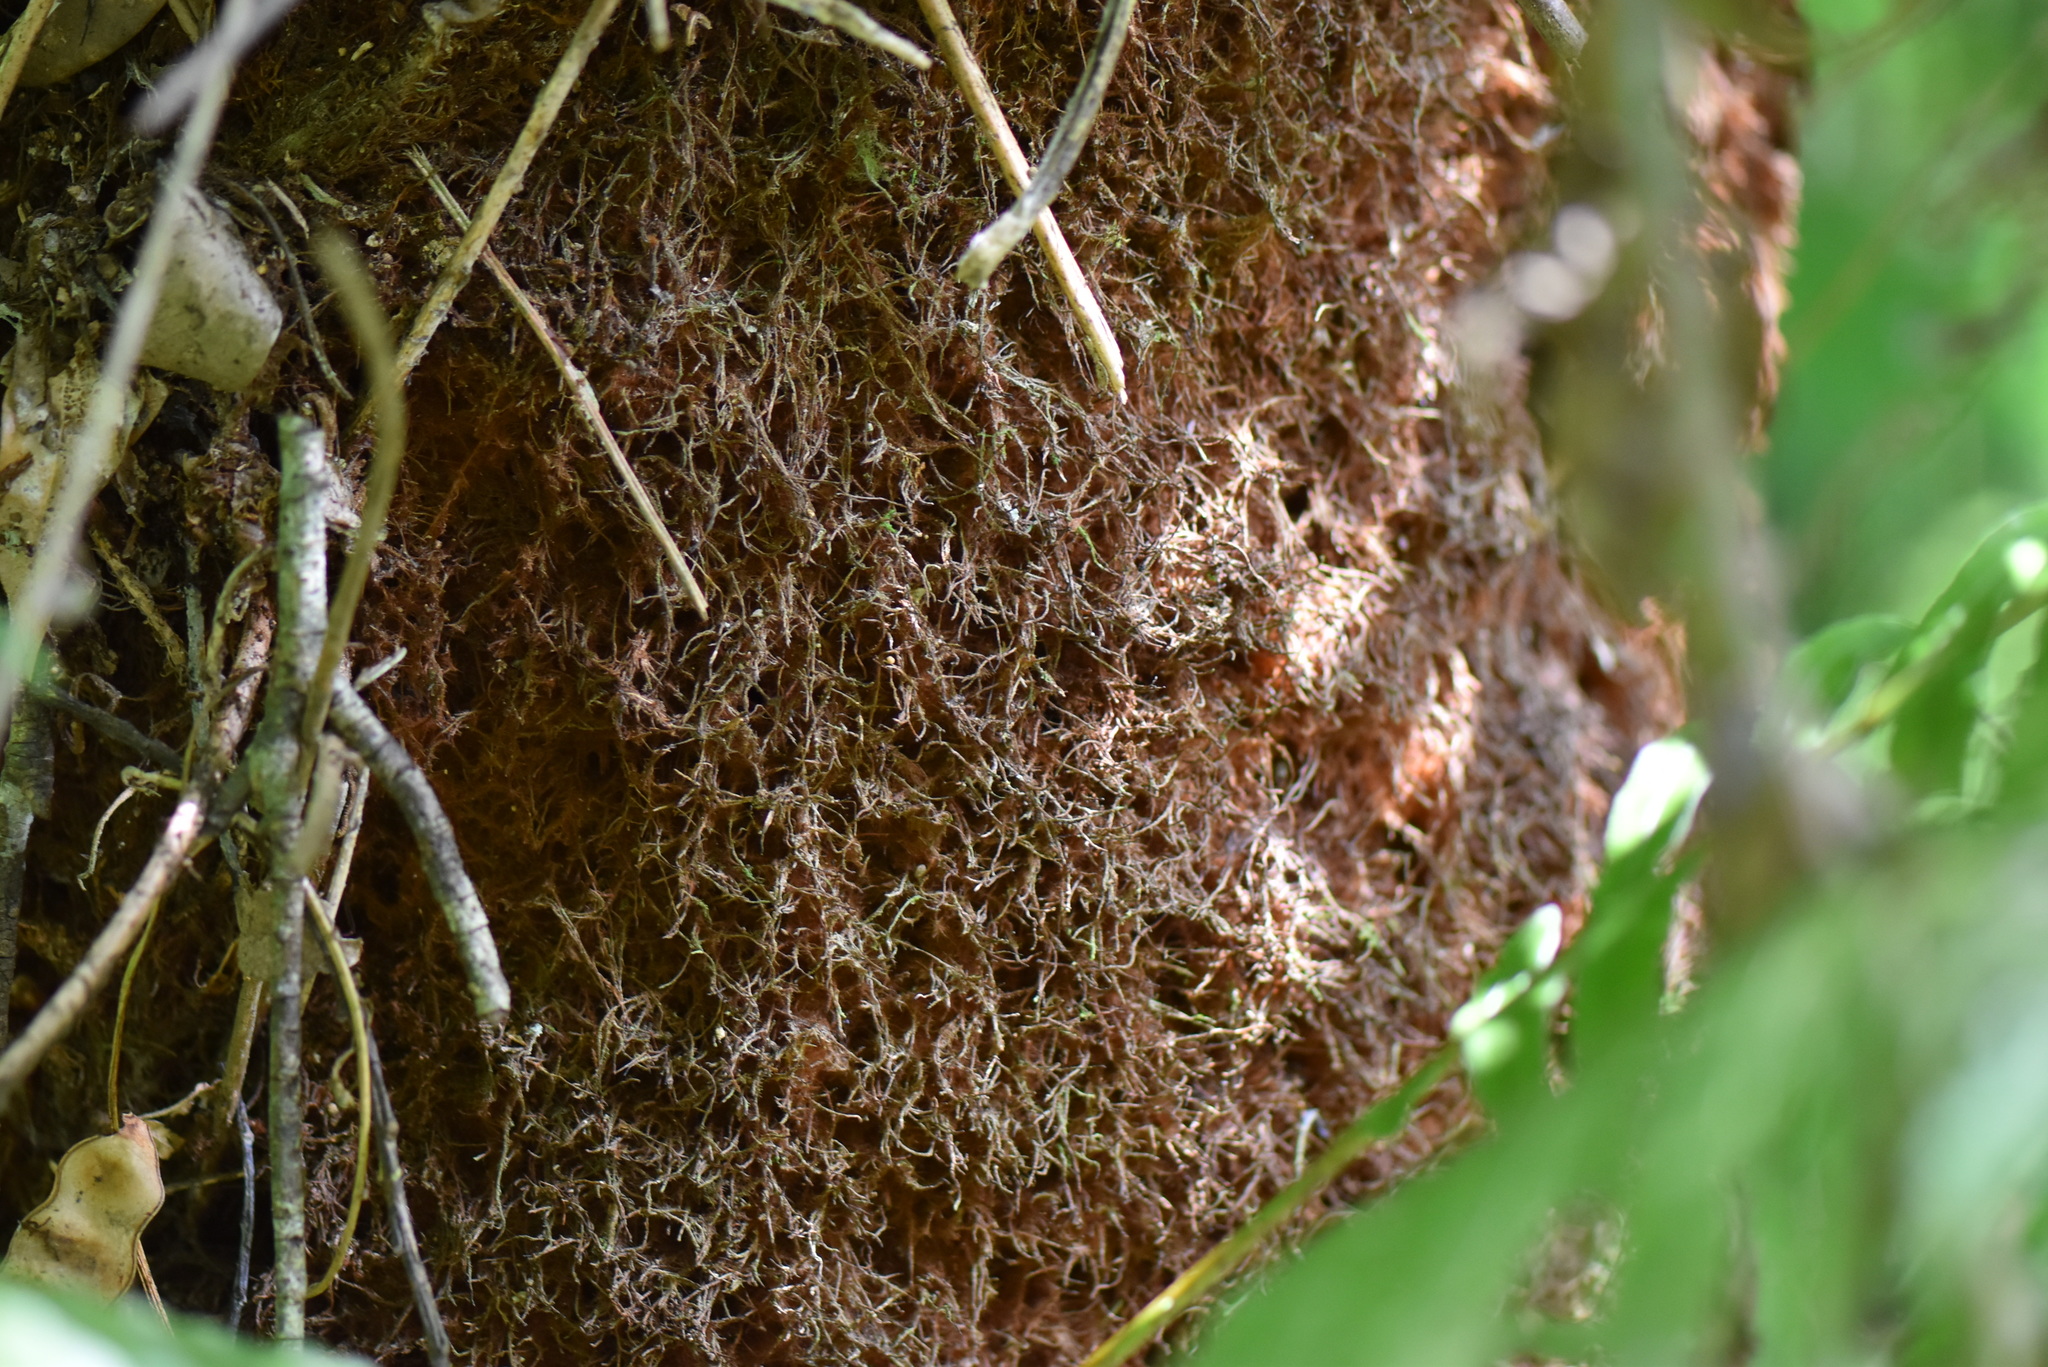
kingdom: Plantae
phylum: Tracheophyta
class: Polypodiopsida
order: Cyatheales
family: Dicksoniaceae
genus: Dicksonia
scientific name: Dicksonia sellowiana
